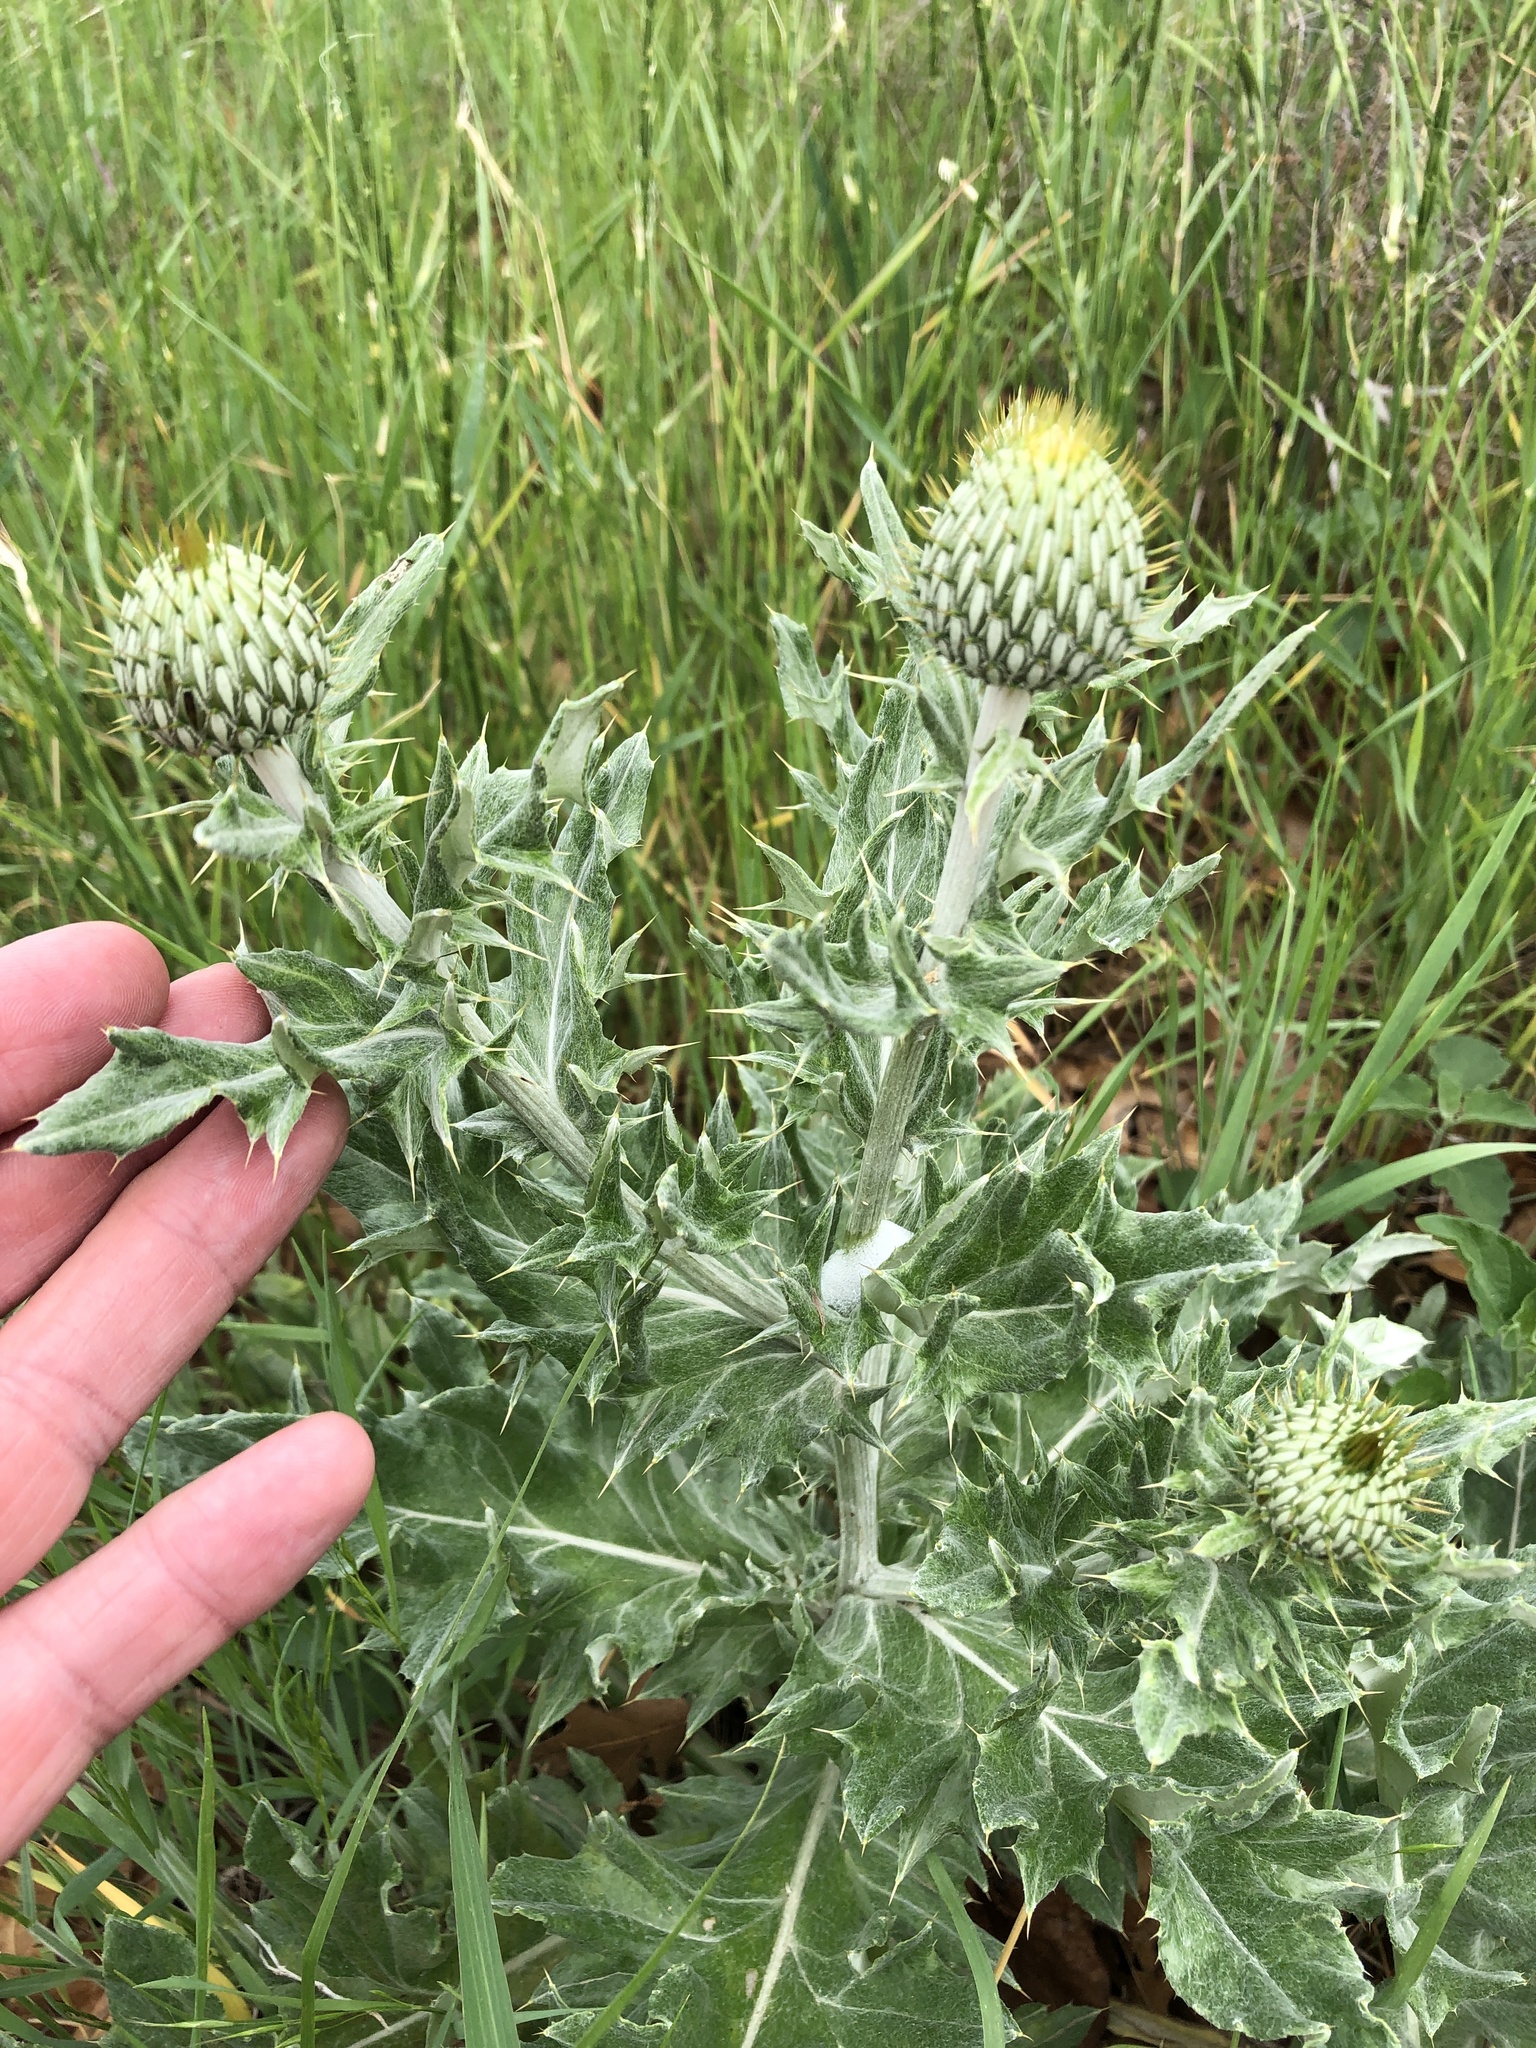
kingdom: Plantae
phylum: Tracheophyta
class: Magnoliopsida
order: Asterales
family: Asteraceae
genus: Cirsium
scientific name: Cirsium undulatum
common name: Pasture thistle
